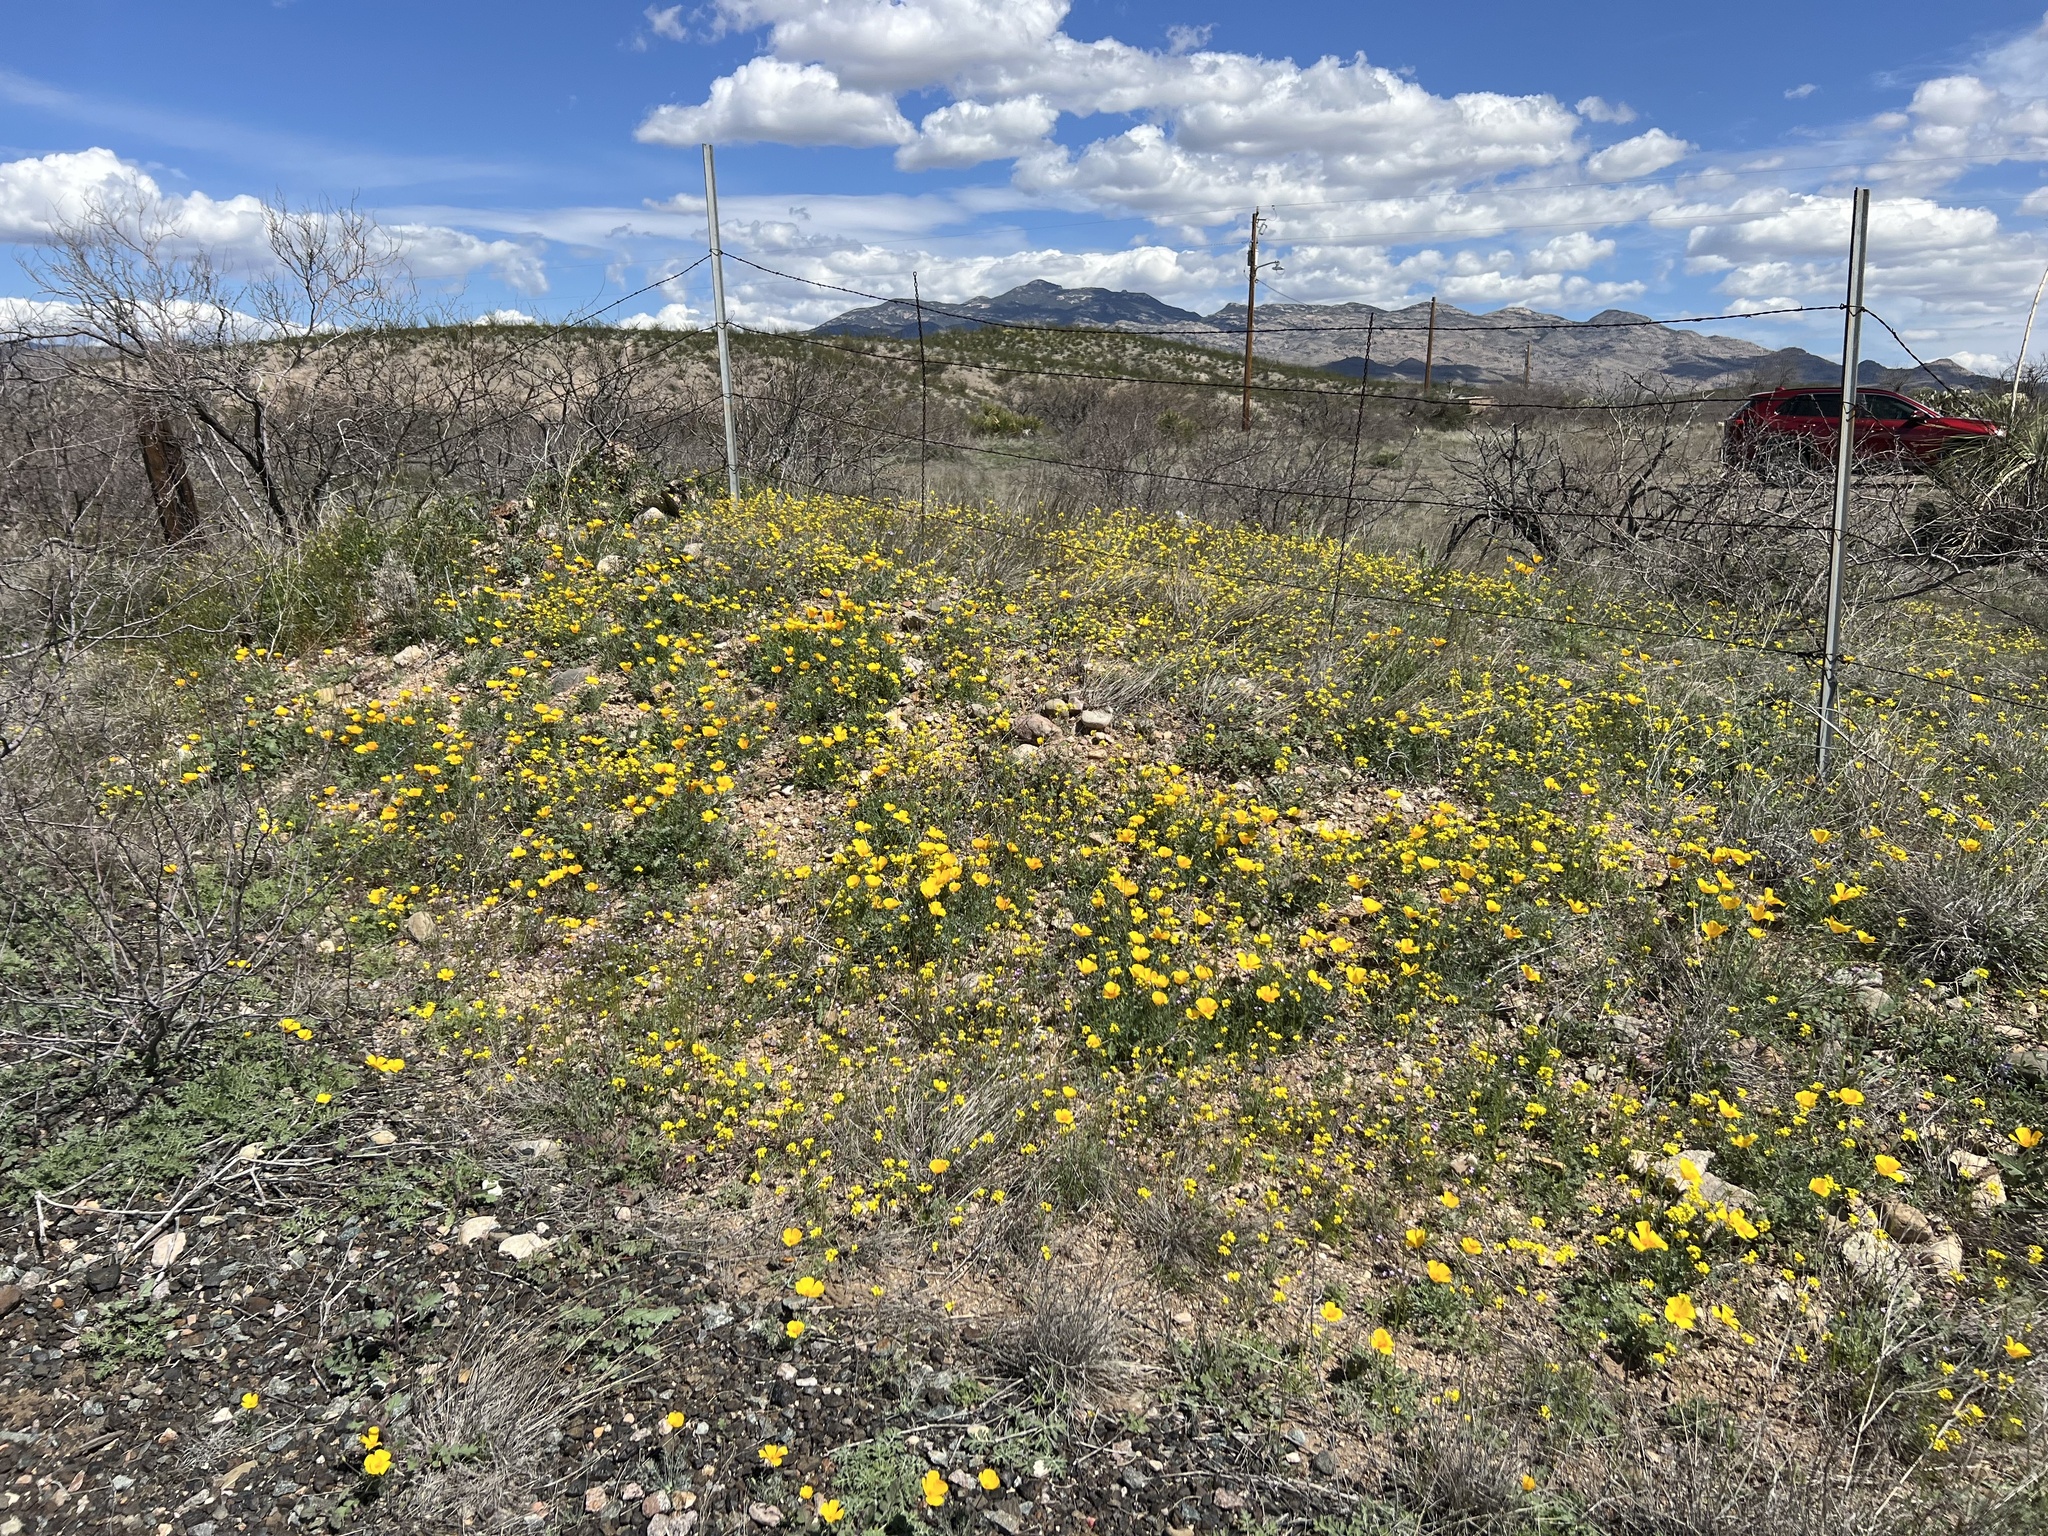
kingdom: Plantae
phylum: Tracheophyta
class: Magnoliopsida
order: Ranunculales
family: Papaveraceae
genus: Eschscholzia
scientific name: Eschscholzia californica
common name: California poppy
